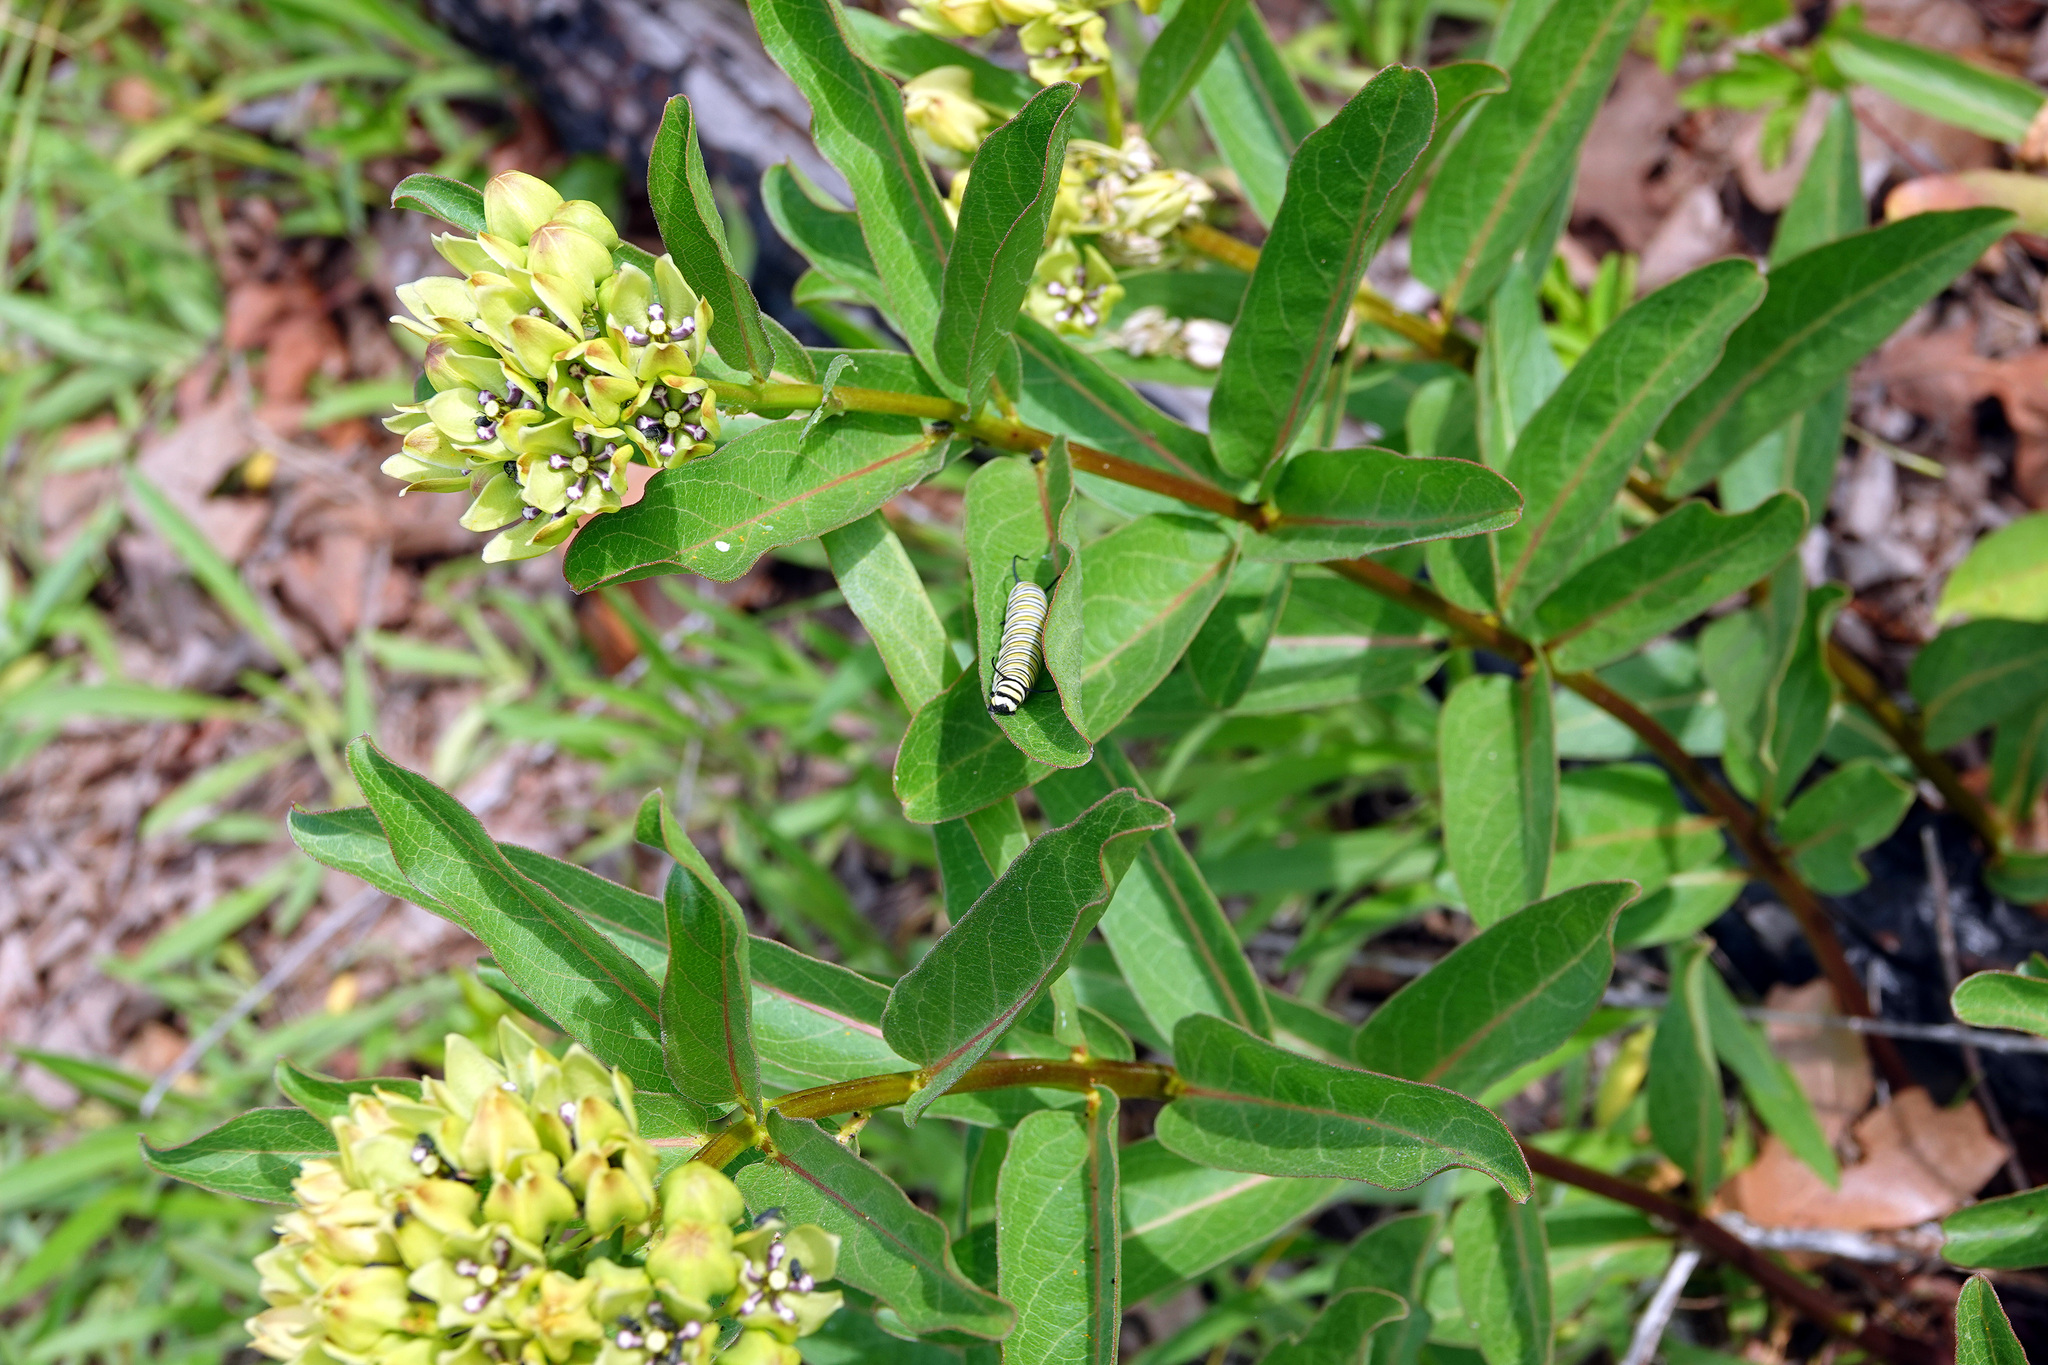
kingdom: Plantae
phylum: Tracheophyta
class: Magnoliopsida
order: Gentianales
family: Apocynaceae
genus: Asclepias
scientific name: Asclepias viridis
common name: Antelope-horns
